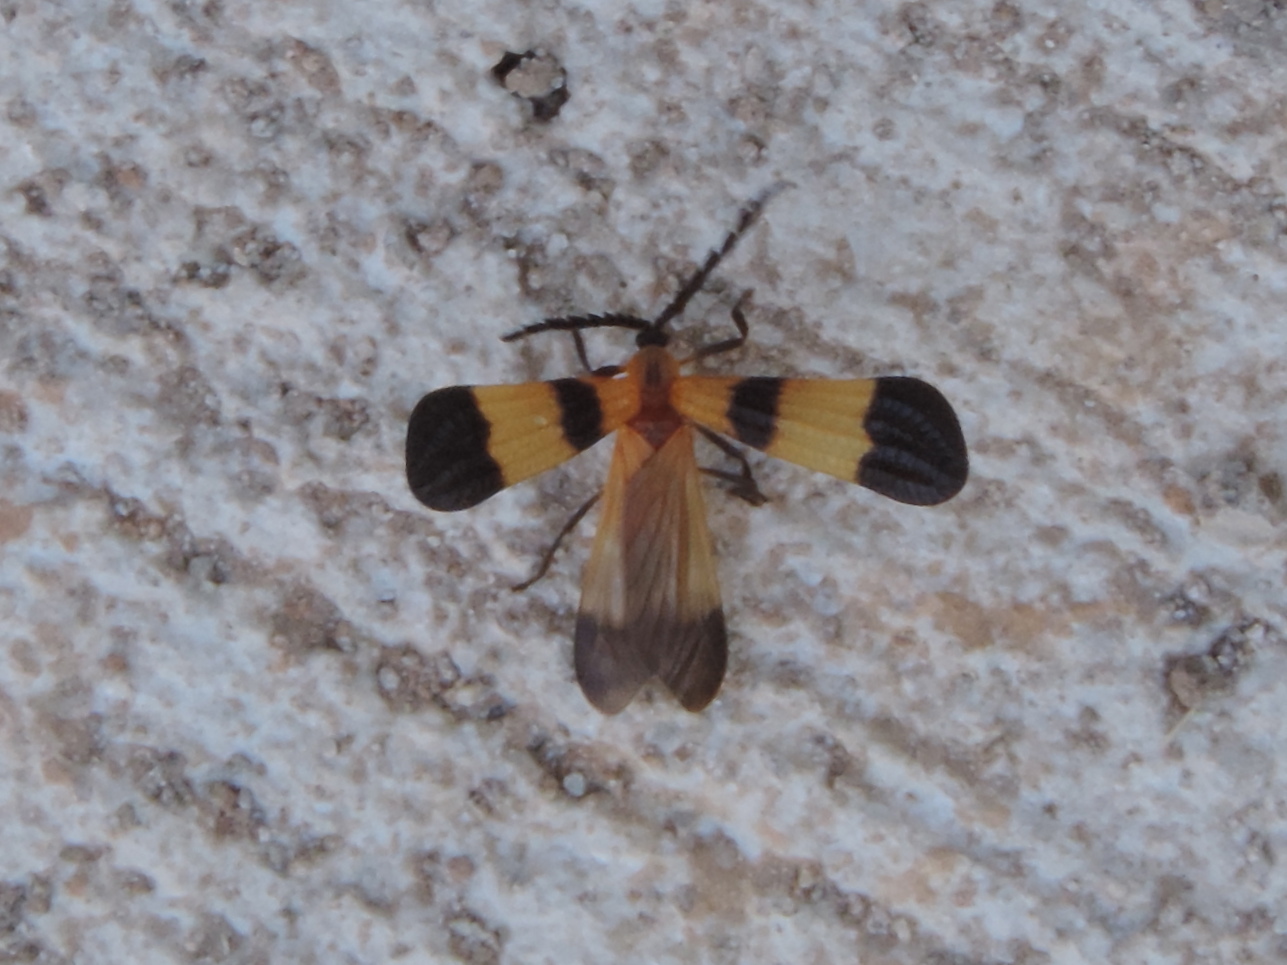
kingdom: Animalia
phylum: Arthropoda
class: Insecta
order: Coleoptera
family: Lycidae
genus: Calopteron
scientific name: Calopteron
